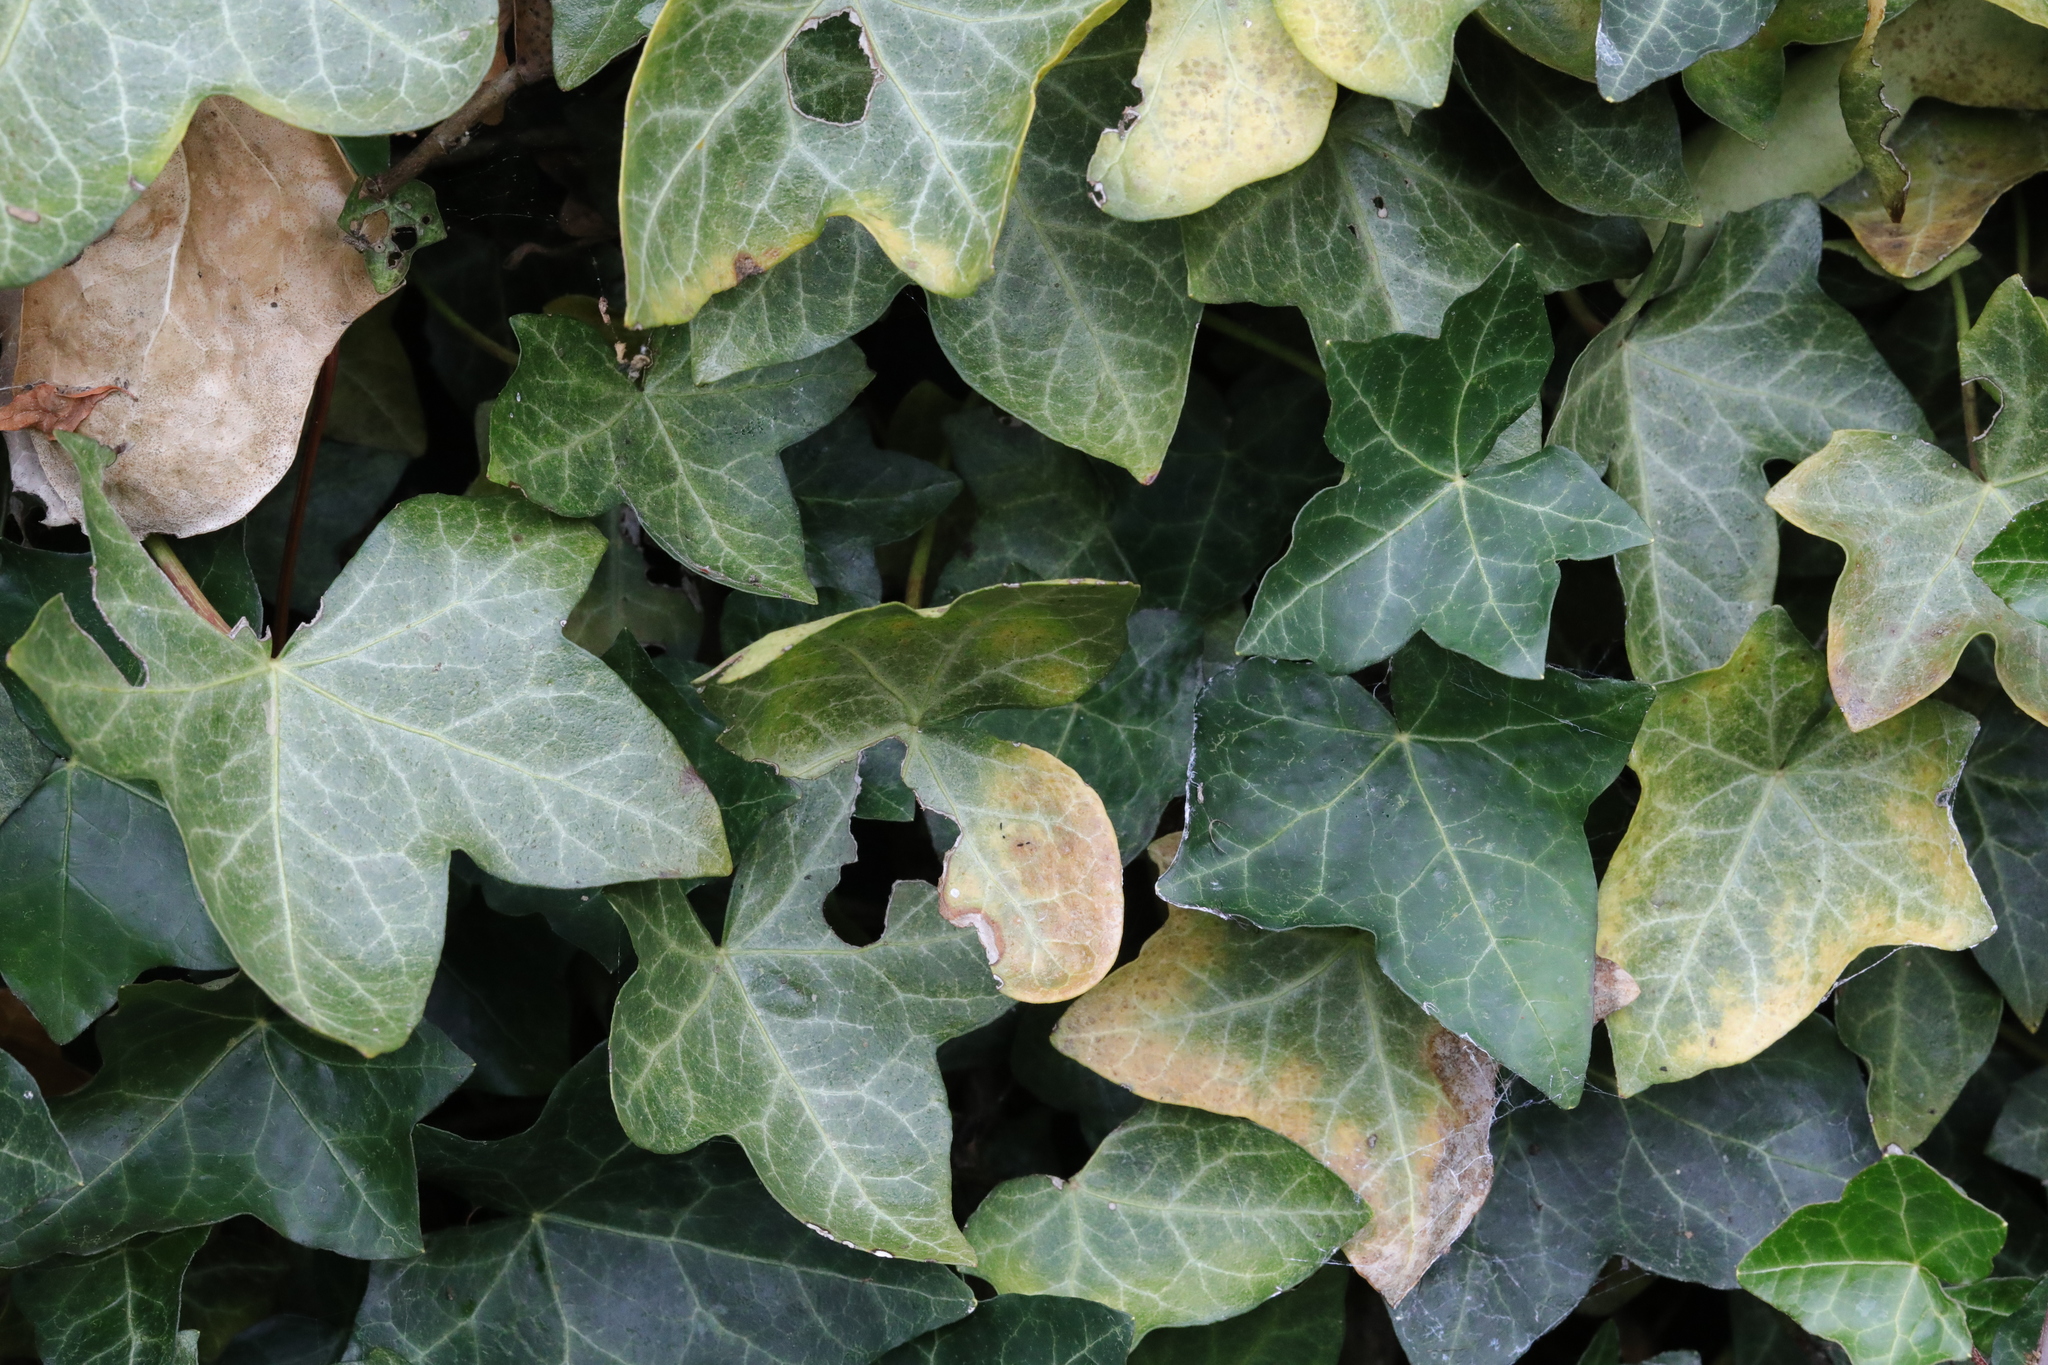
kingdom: Plantae
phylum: Tracheophyta
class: Magnoliopsida
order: Apiales
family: Araliaceae
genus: Hedera
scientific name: Hedera helix
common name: Ivy
